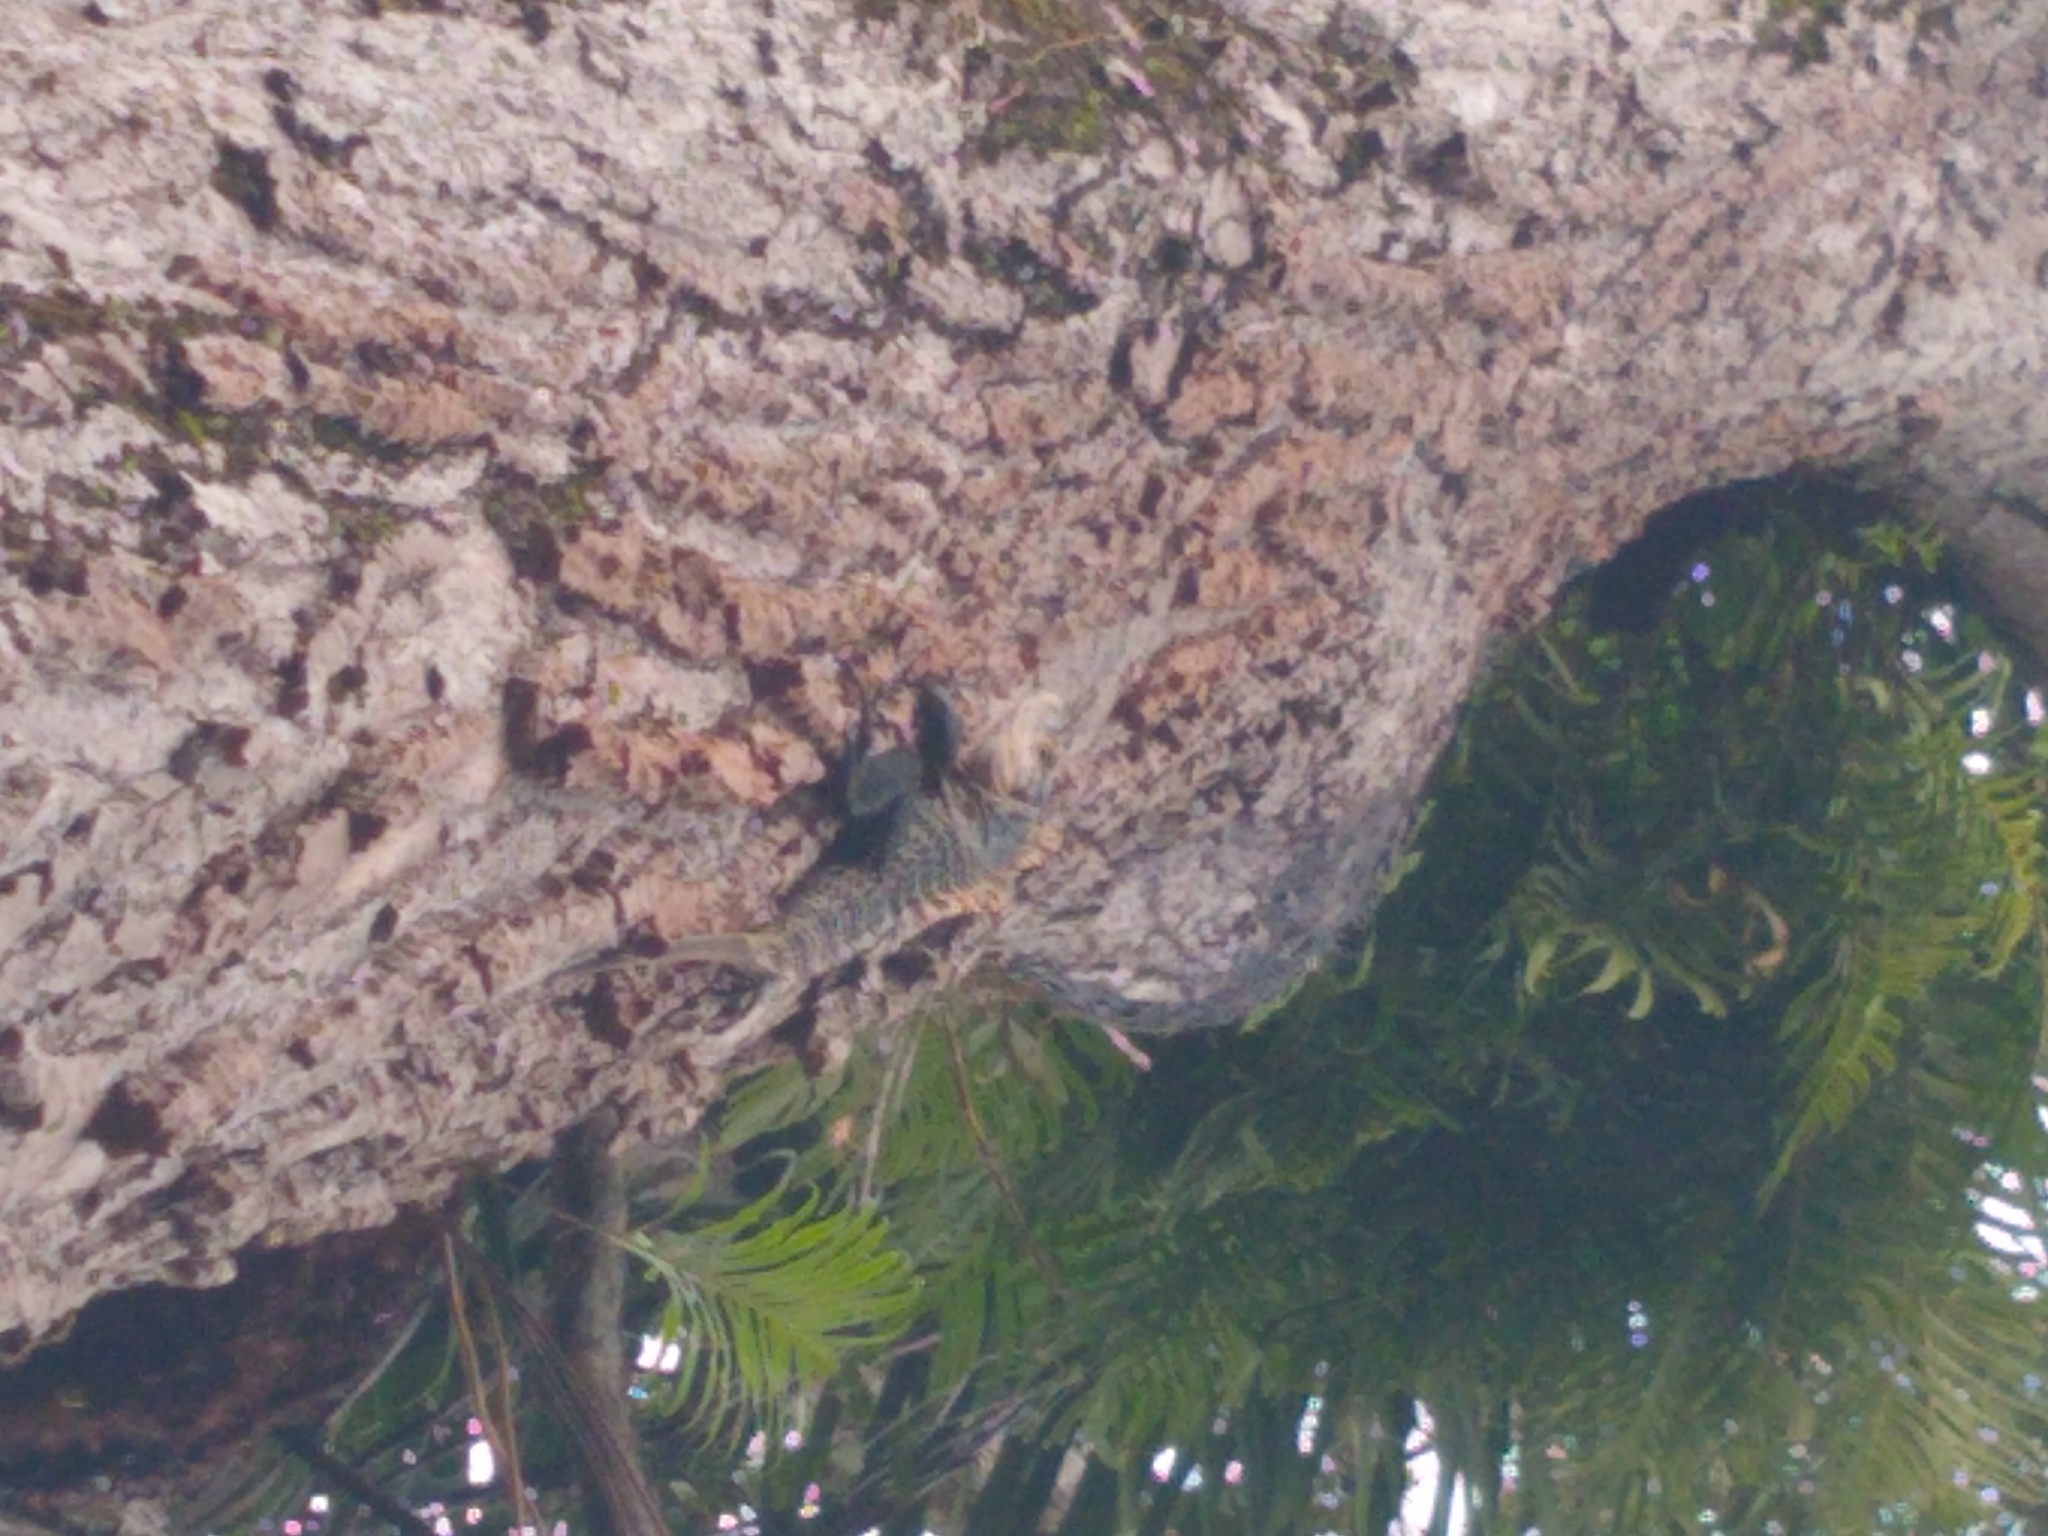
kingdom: Animalia
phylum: Chordata
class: Squamata
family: Iguanidae
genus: Ctenosaura
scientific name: Ctenosaura similis
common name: Black spiny-tailed iguana
